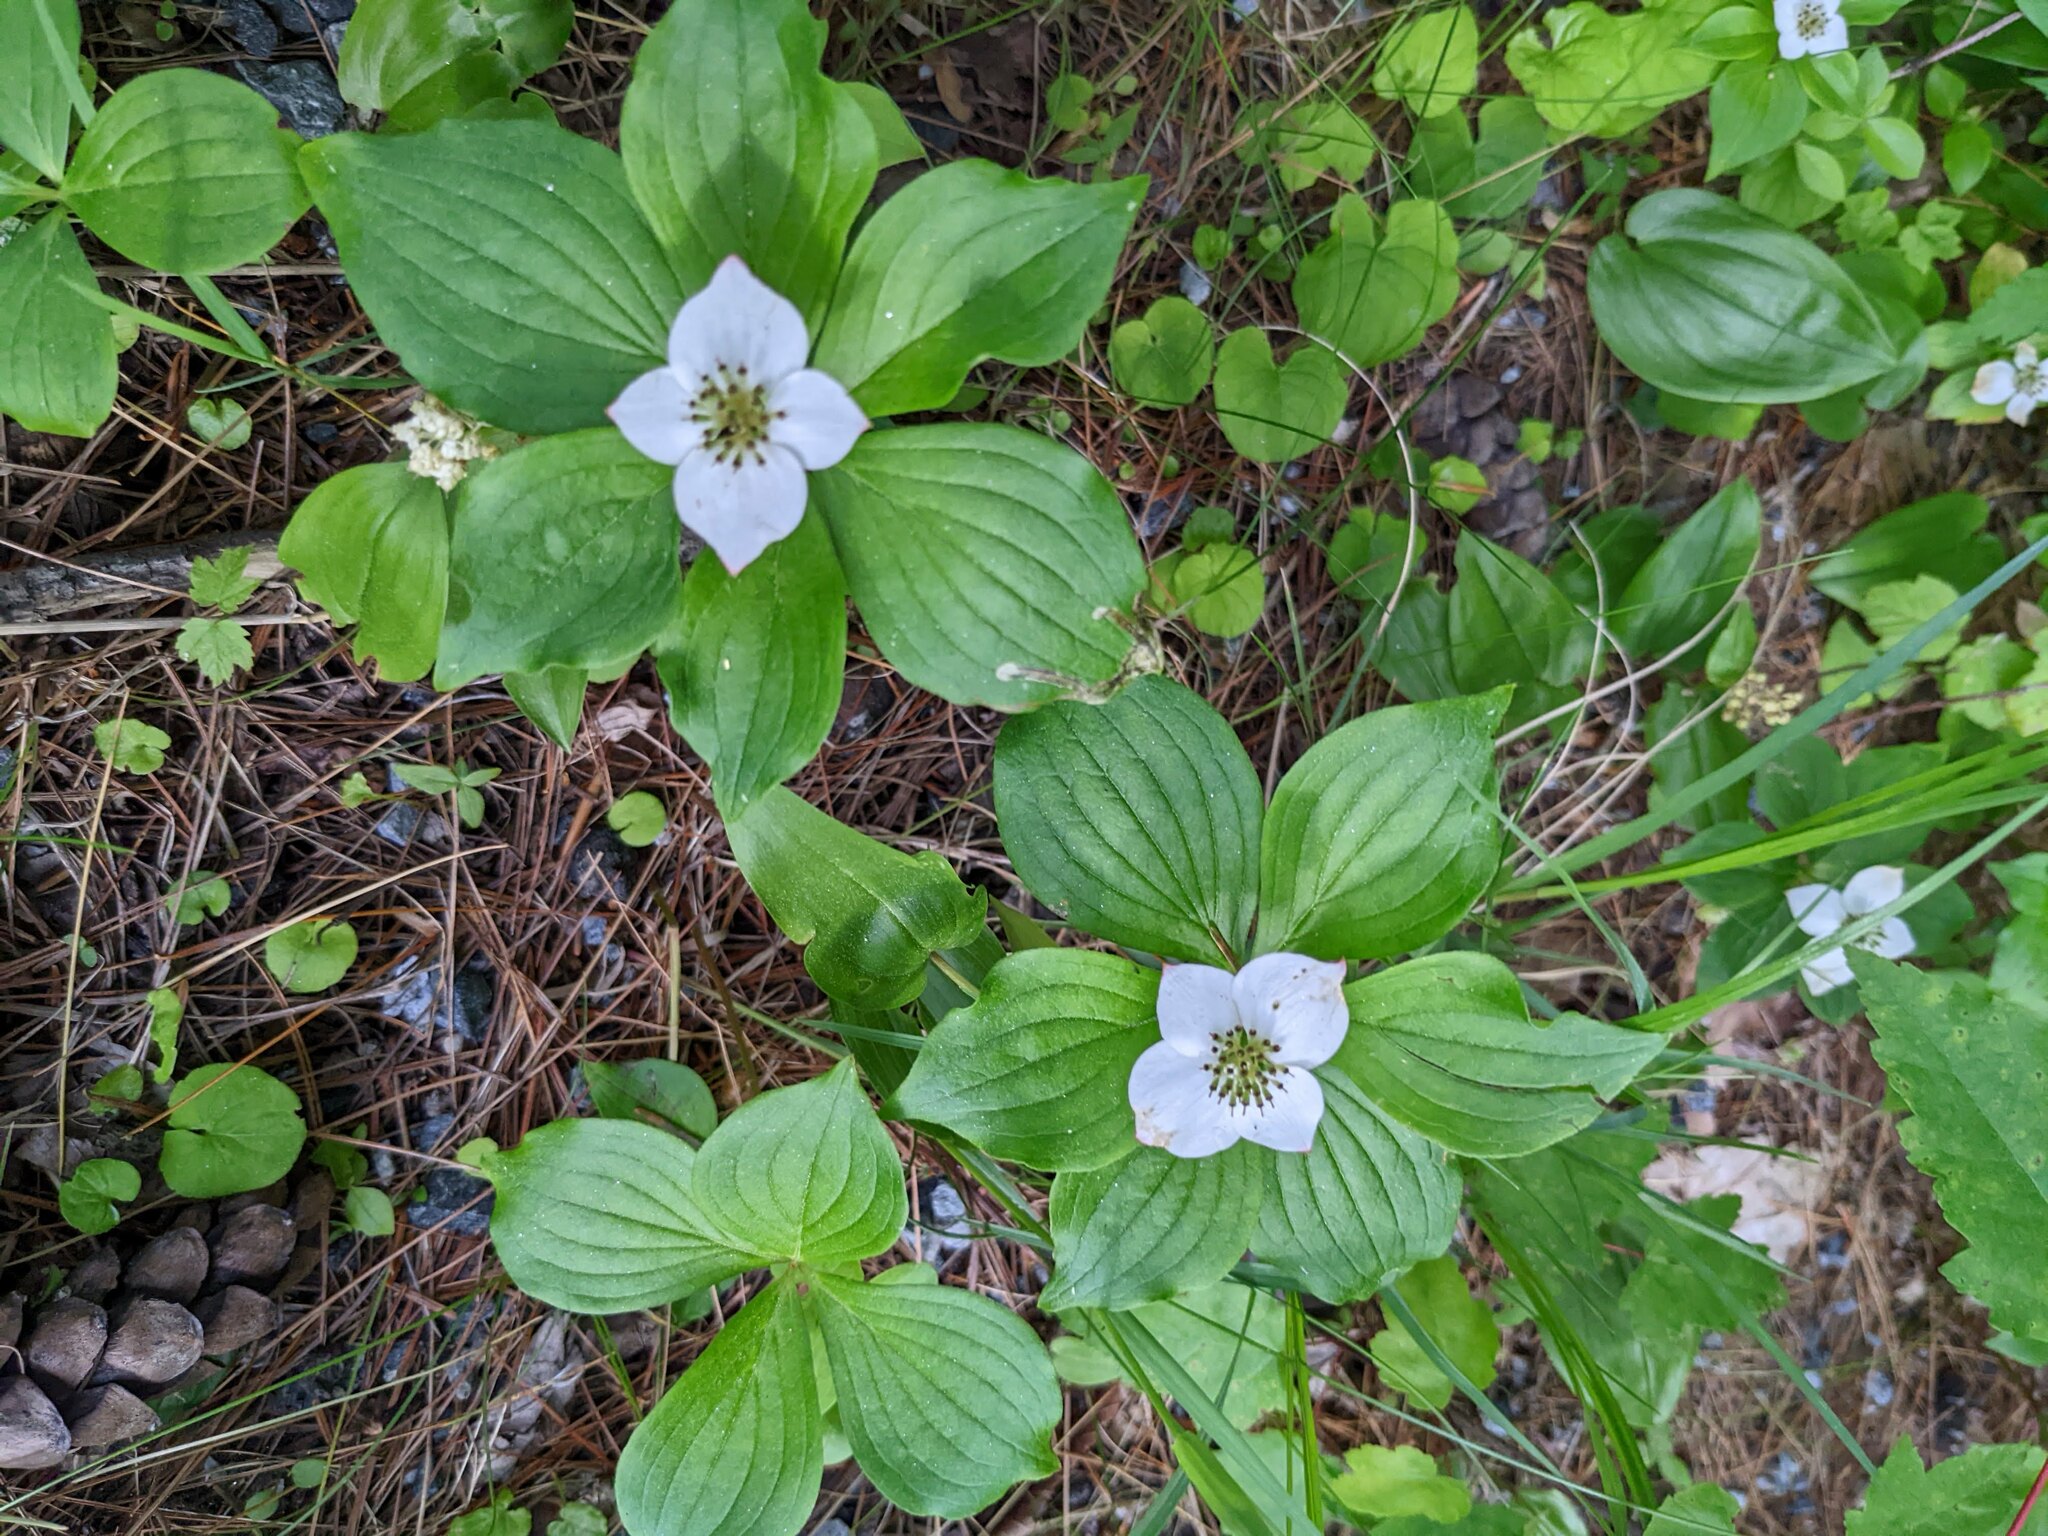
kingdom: Plantae
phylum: Tracheophyta
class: Magnoliopsida
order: Cornales
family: Cornaceae
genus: Cornus
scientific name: Cornus canadensis
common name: Creeping dogwood
